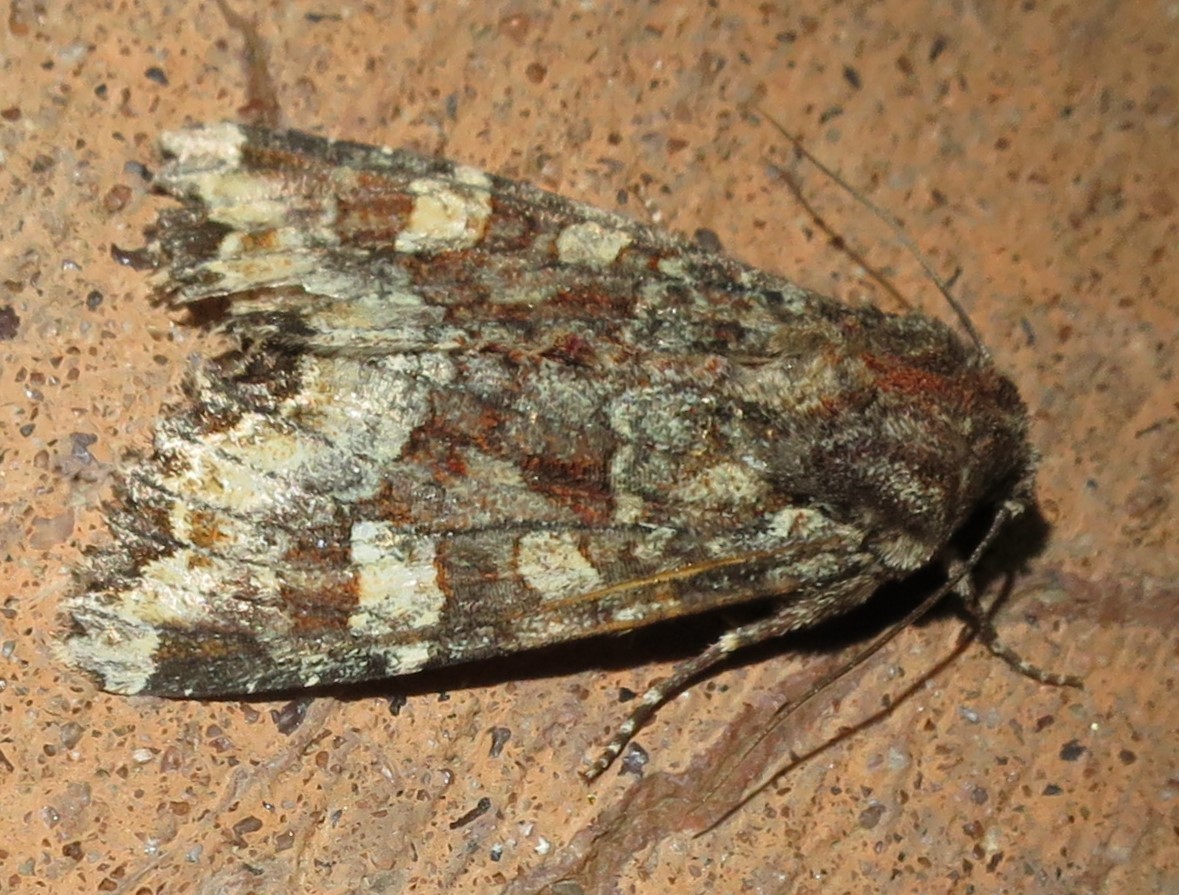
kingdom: Animalia
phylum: Arthropoda
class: Insecta
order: Lepidoptera
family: Noctuidae
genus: Apamea
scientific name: Apamea amputatrix
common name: Yellow-headed cutworm moth
